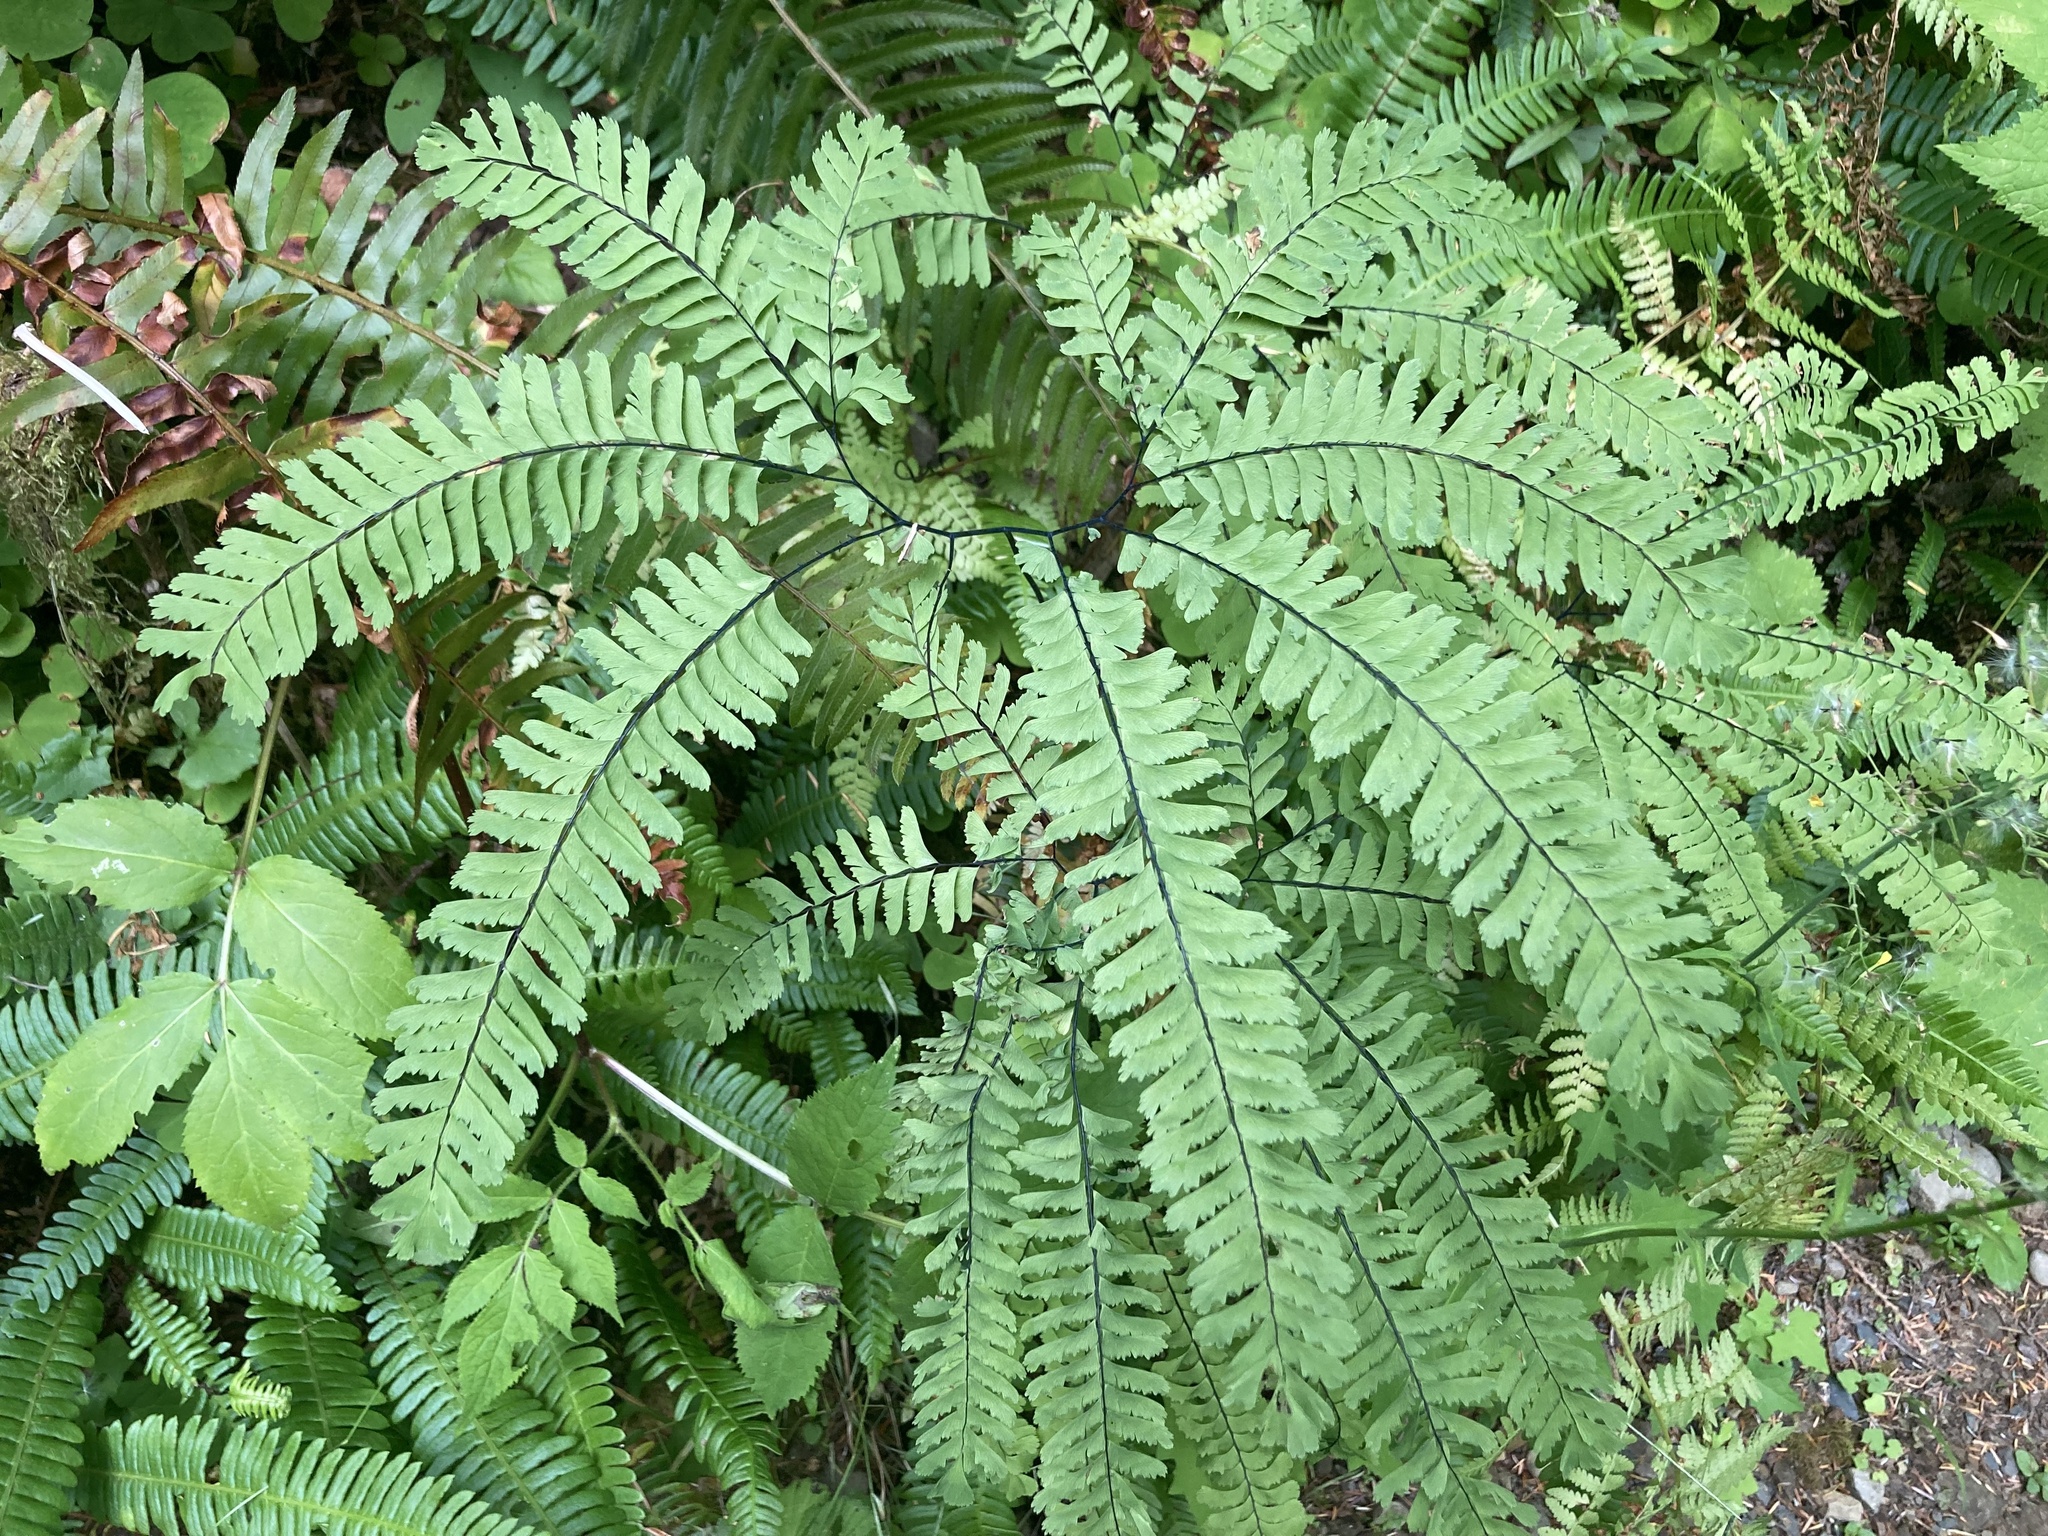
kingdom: Plantae
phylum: Tracheophyta
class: Polypodiopsida
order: Polypodiales
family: Pteridaceae
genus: Adiantum
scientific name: Adiantum aleuticum
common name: Aleutian maidenhair fern
